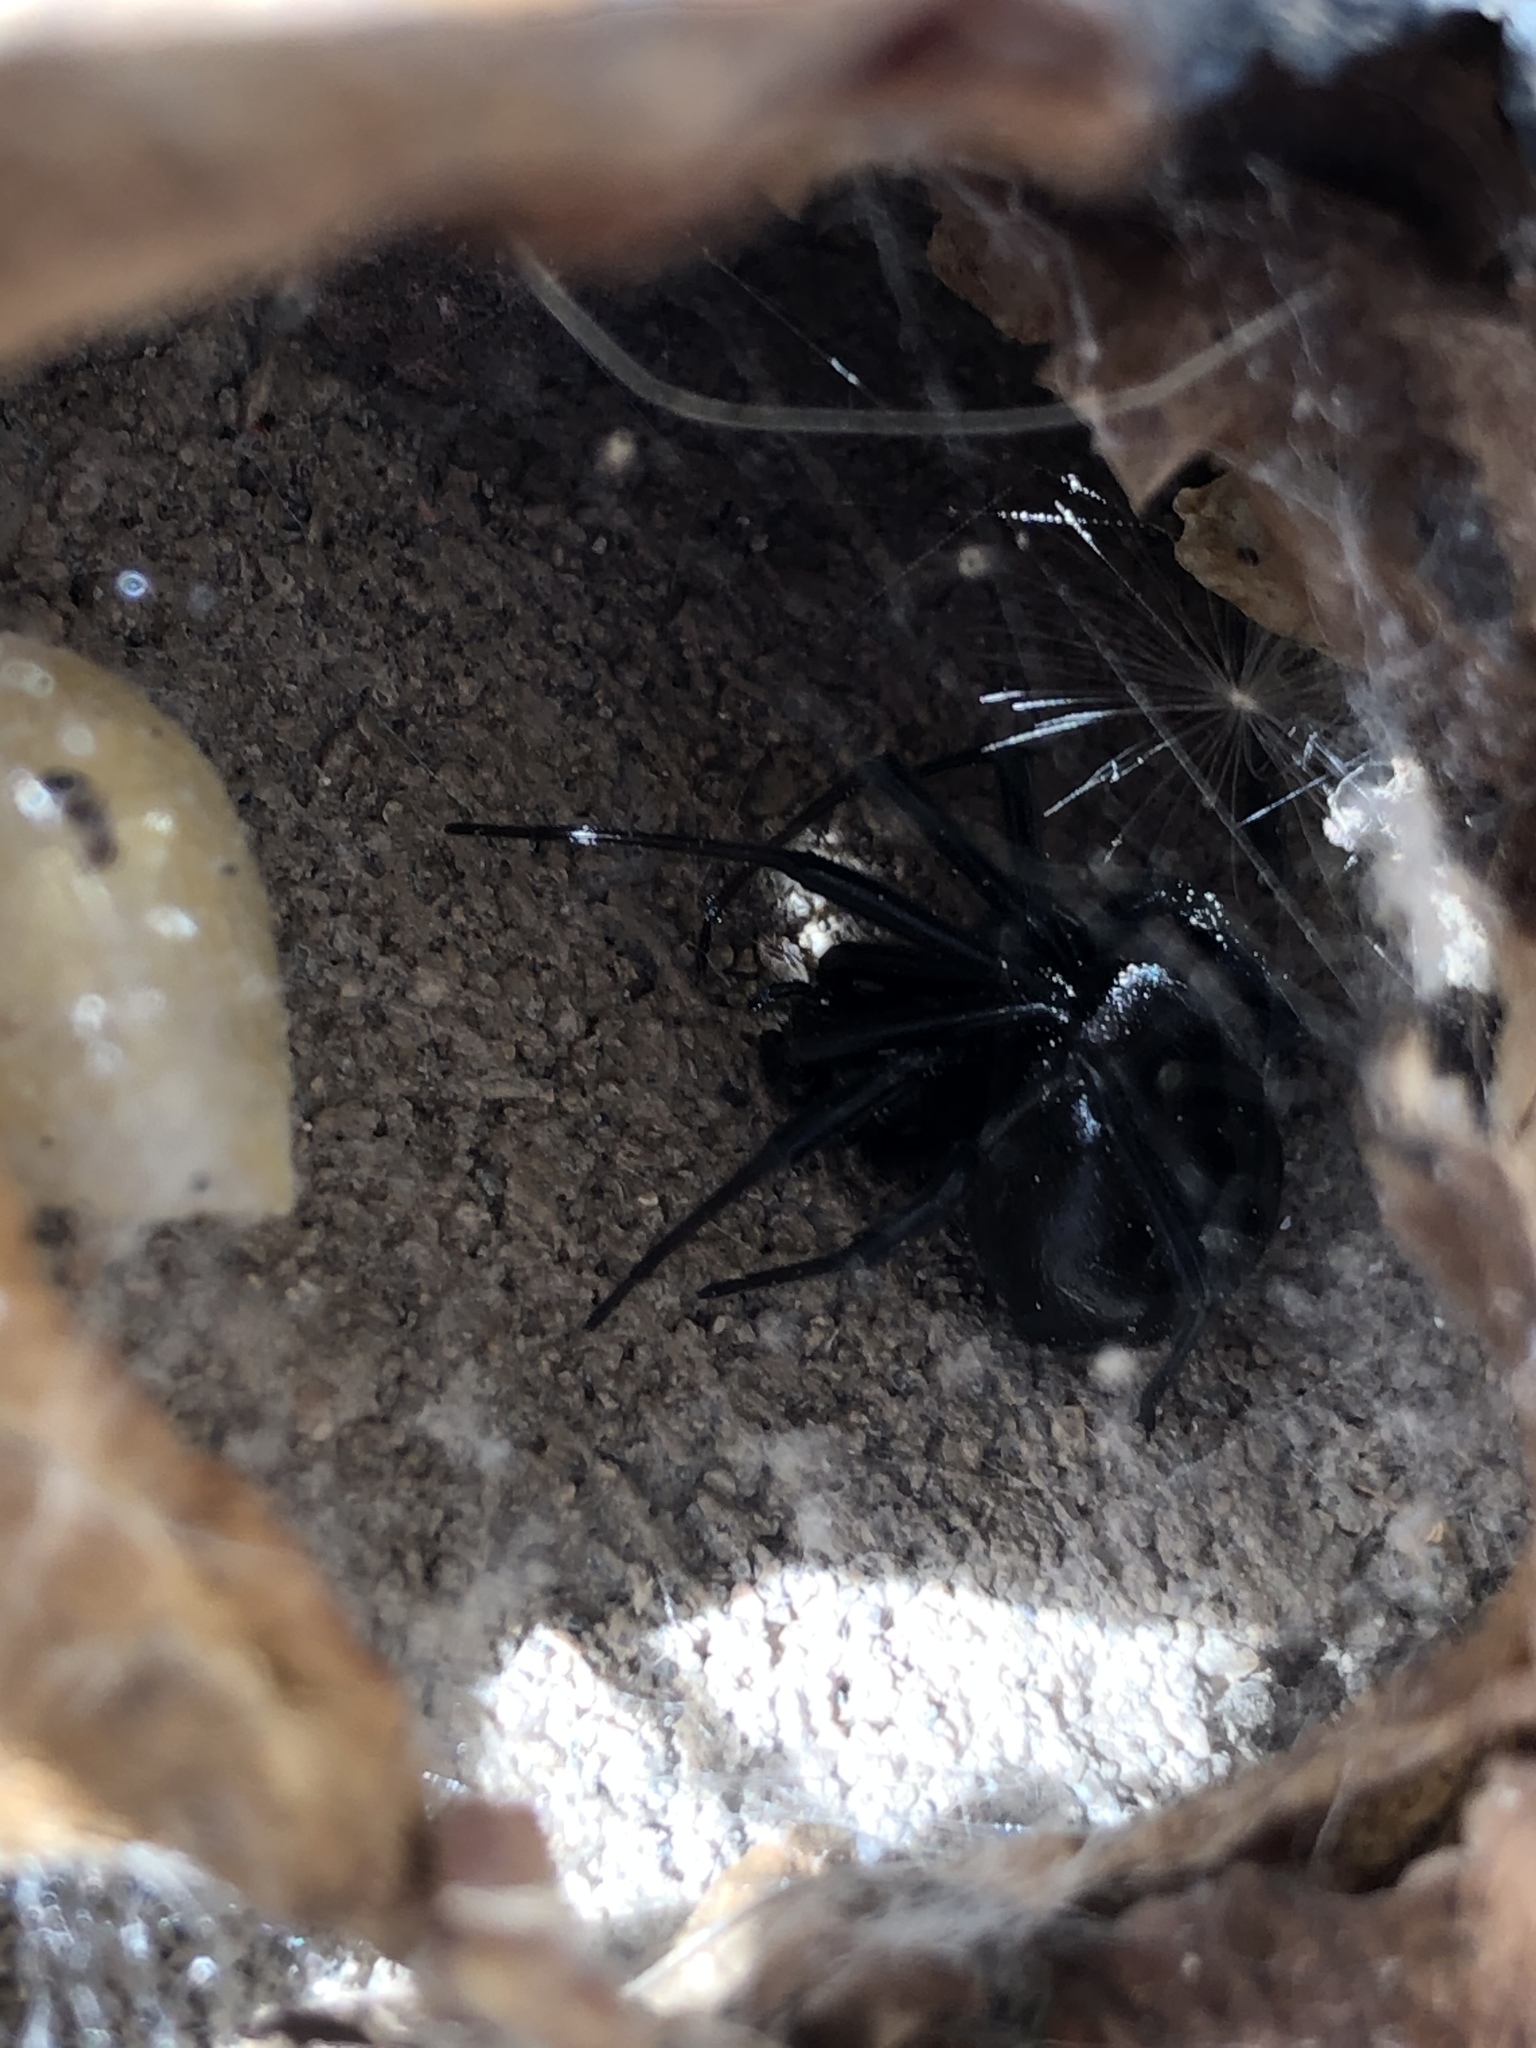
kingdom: Animalia
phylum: Arthropoda
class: Arachnida
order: Araneae
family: Theridiidae
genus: Latrodectus
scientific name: Latrodectus hesperus
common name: Western black widow
